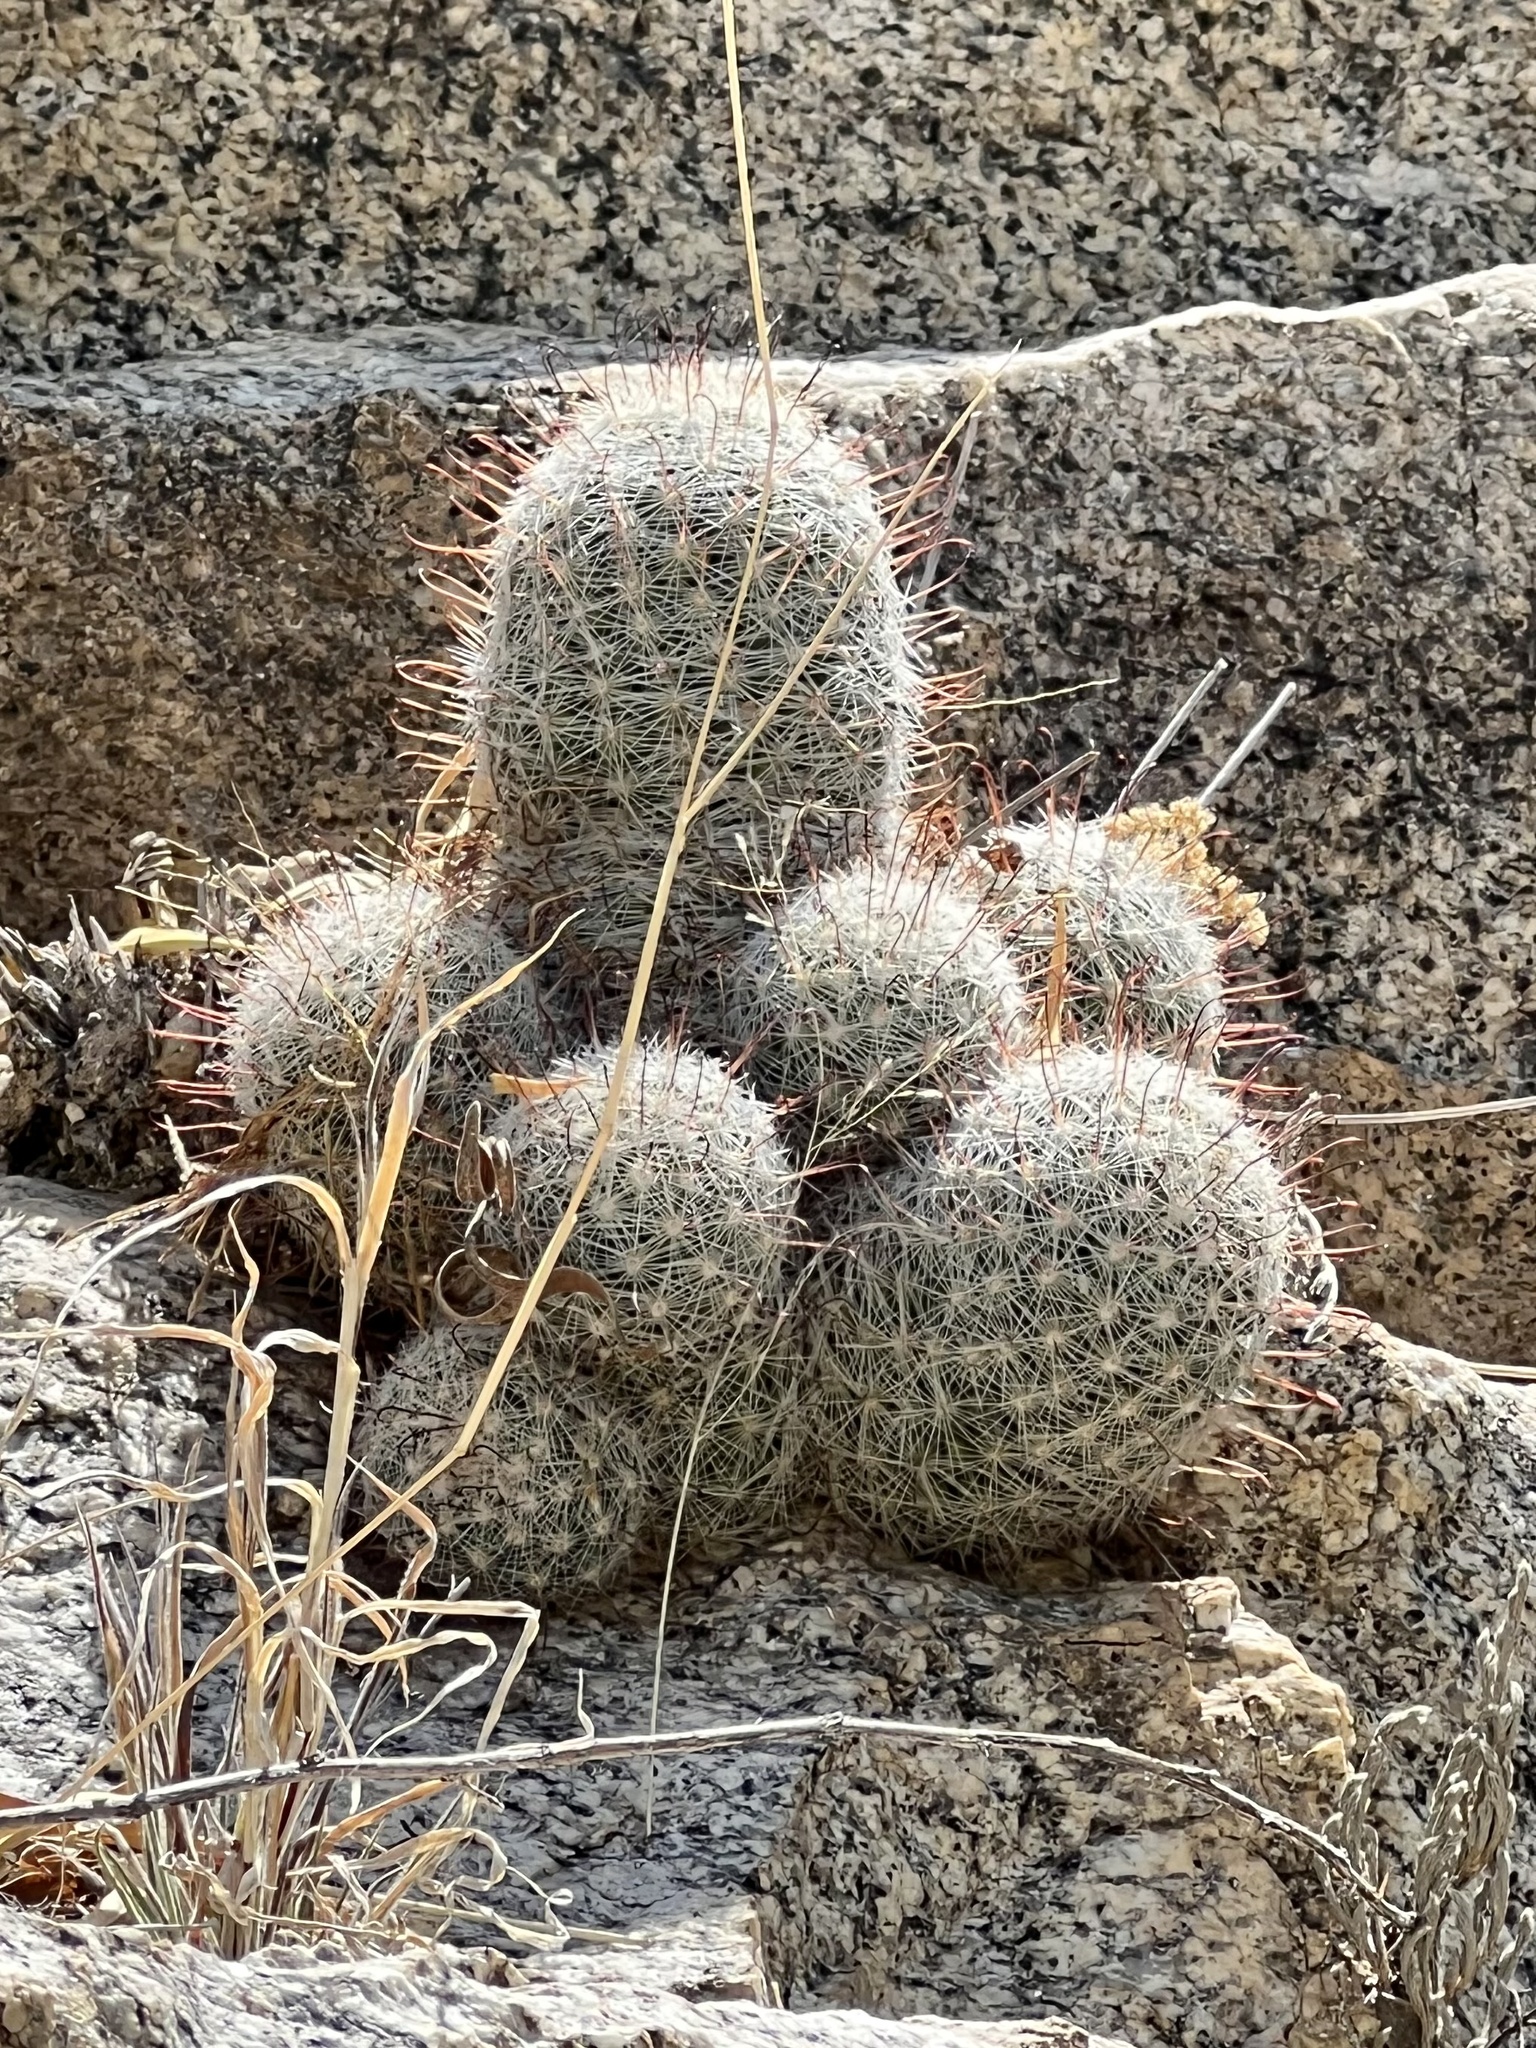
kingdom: Plantae
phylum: Tracheophyta
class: Magnoliopsida
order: Caryophyllales
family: Cactaceae
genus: Cochemiea
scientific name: Cochemiea grahamii
